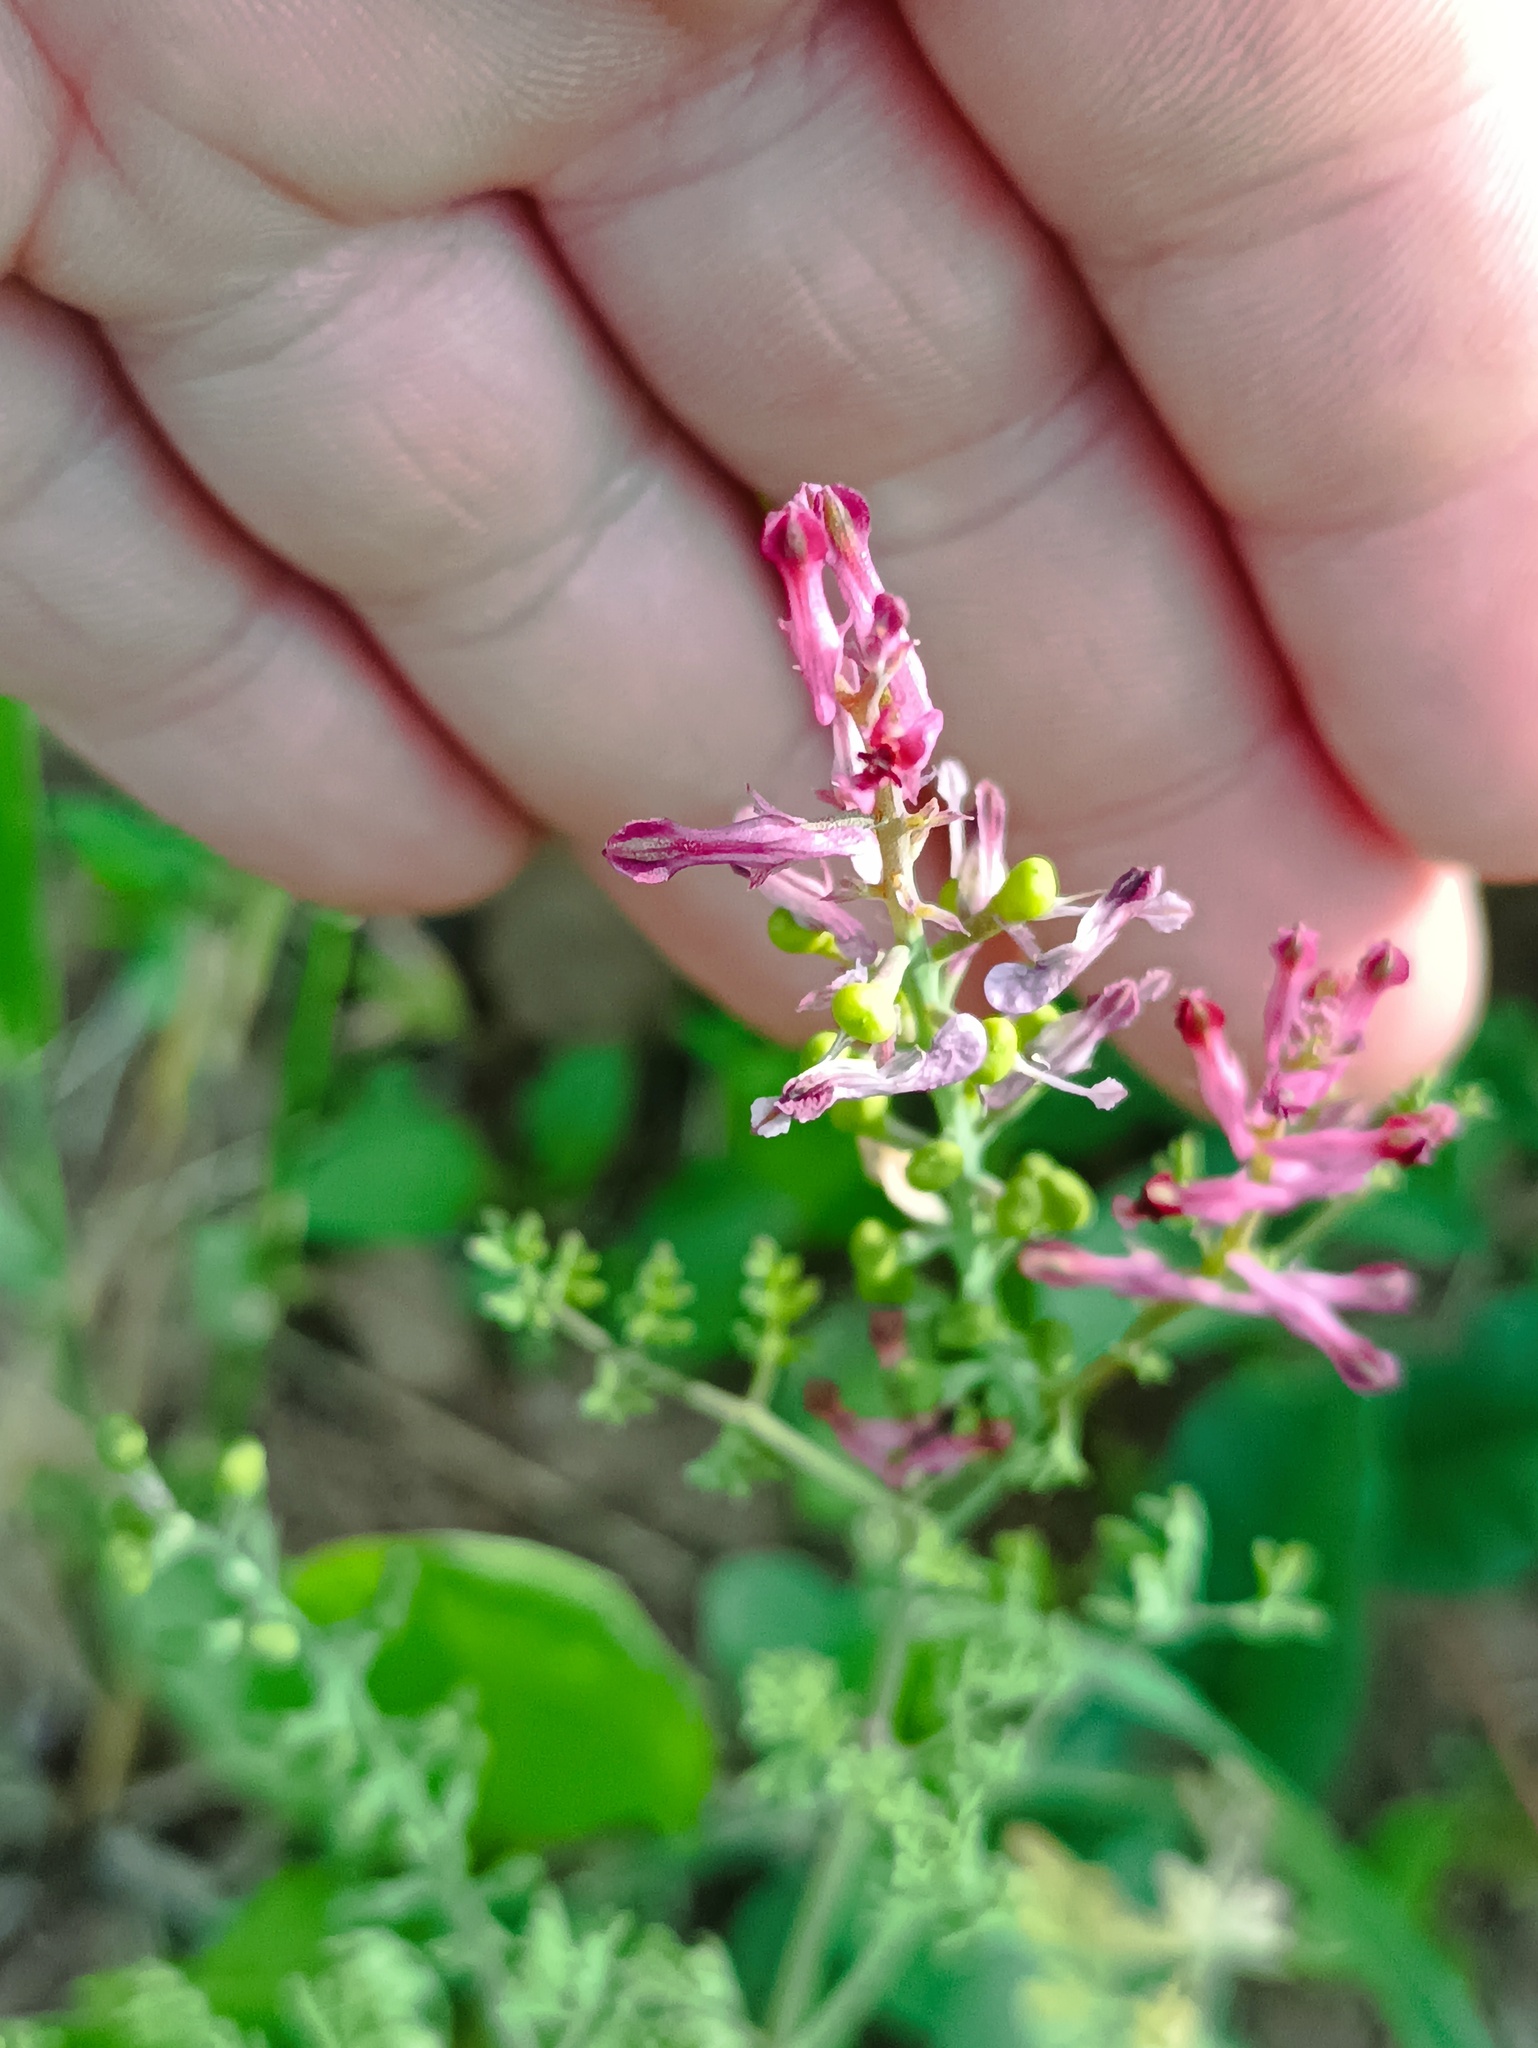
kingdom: Plantae
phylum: Tracheophyta
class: Magnoliopsida
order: Ranunculales
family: Papaveraceae
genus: Fumaria
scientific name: Fumaria officinalis
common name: Common fumitory
